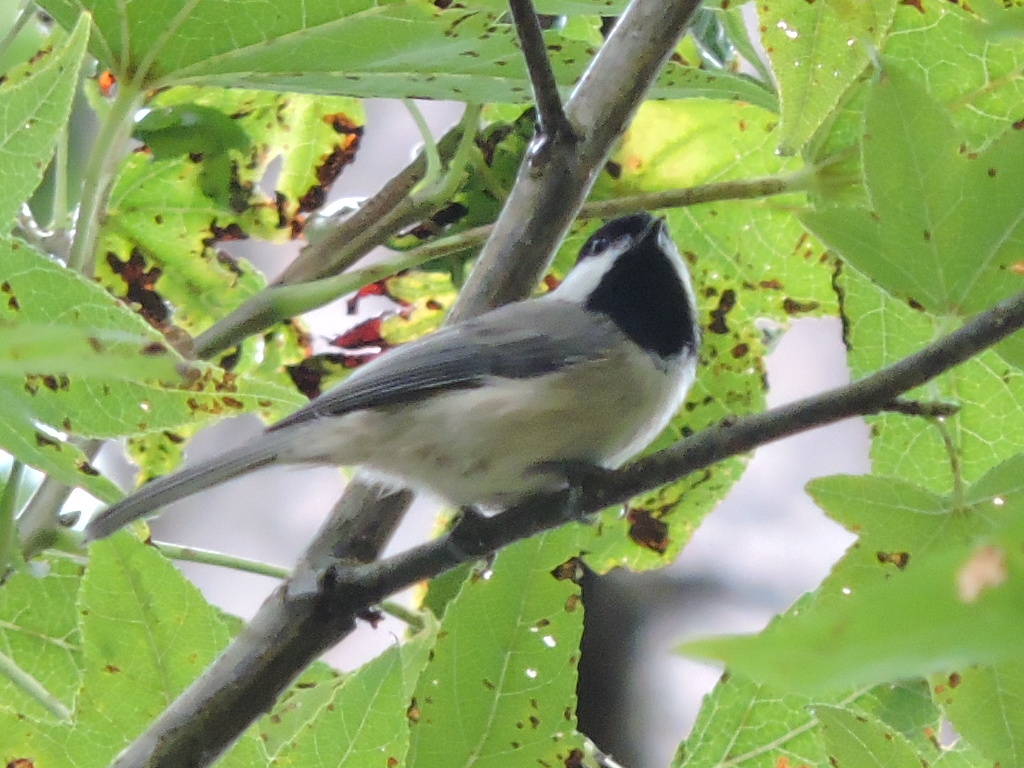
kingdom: Animalia
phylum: Chordata
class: Aves
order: Passeriformes
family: Paridae
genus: Poecile
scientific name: Poecile carolinensis
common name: Carolina chickadee
